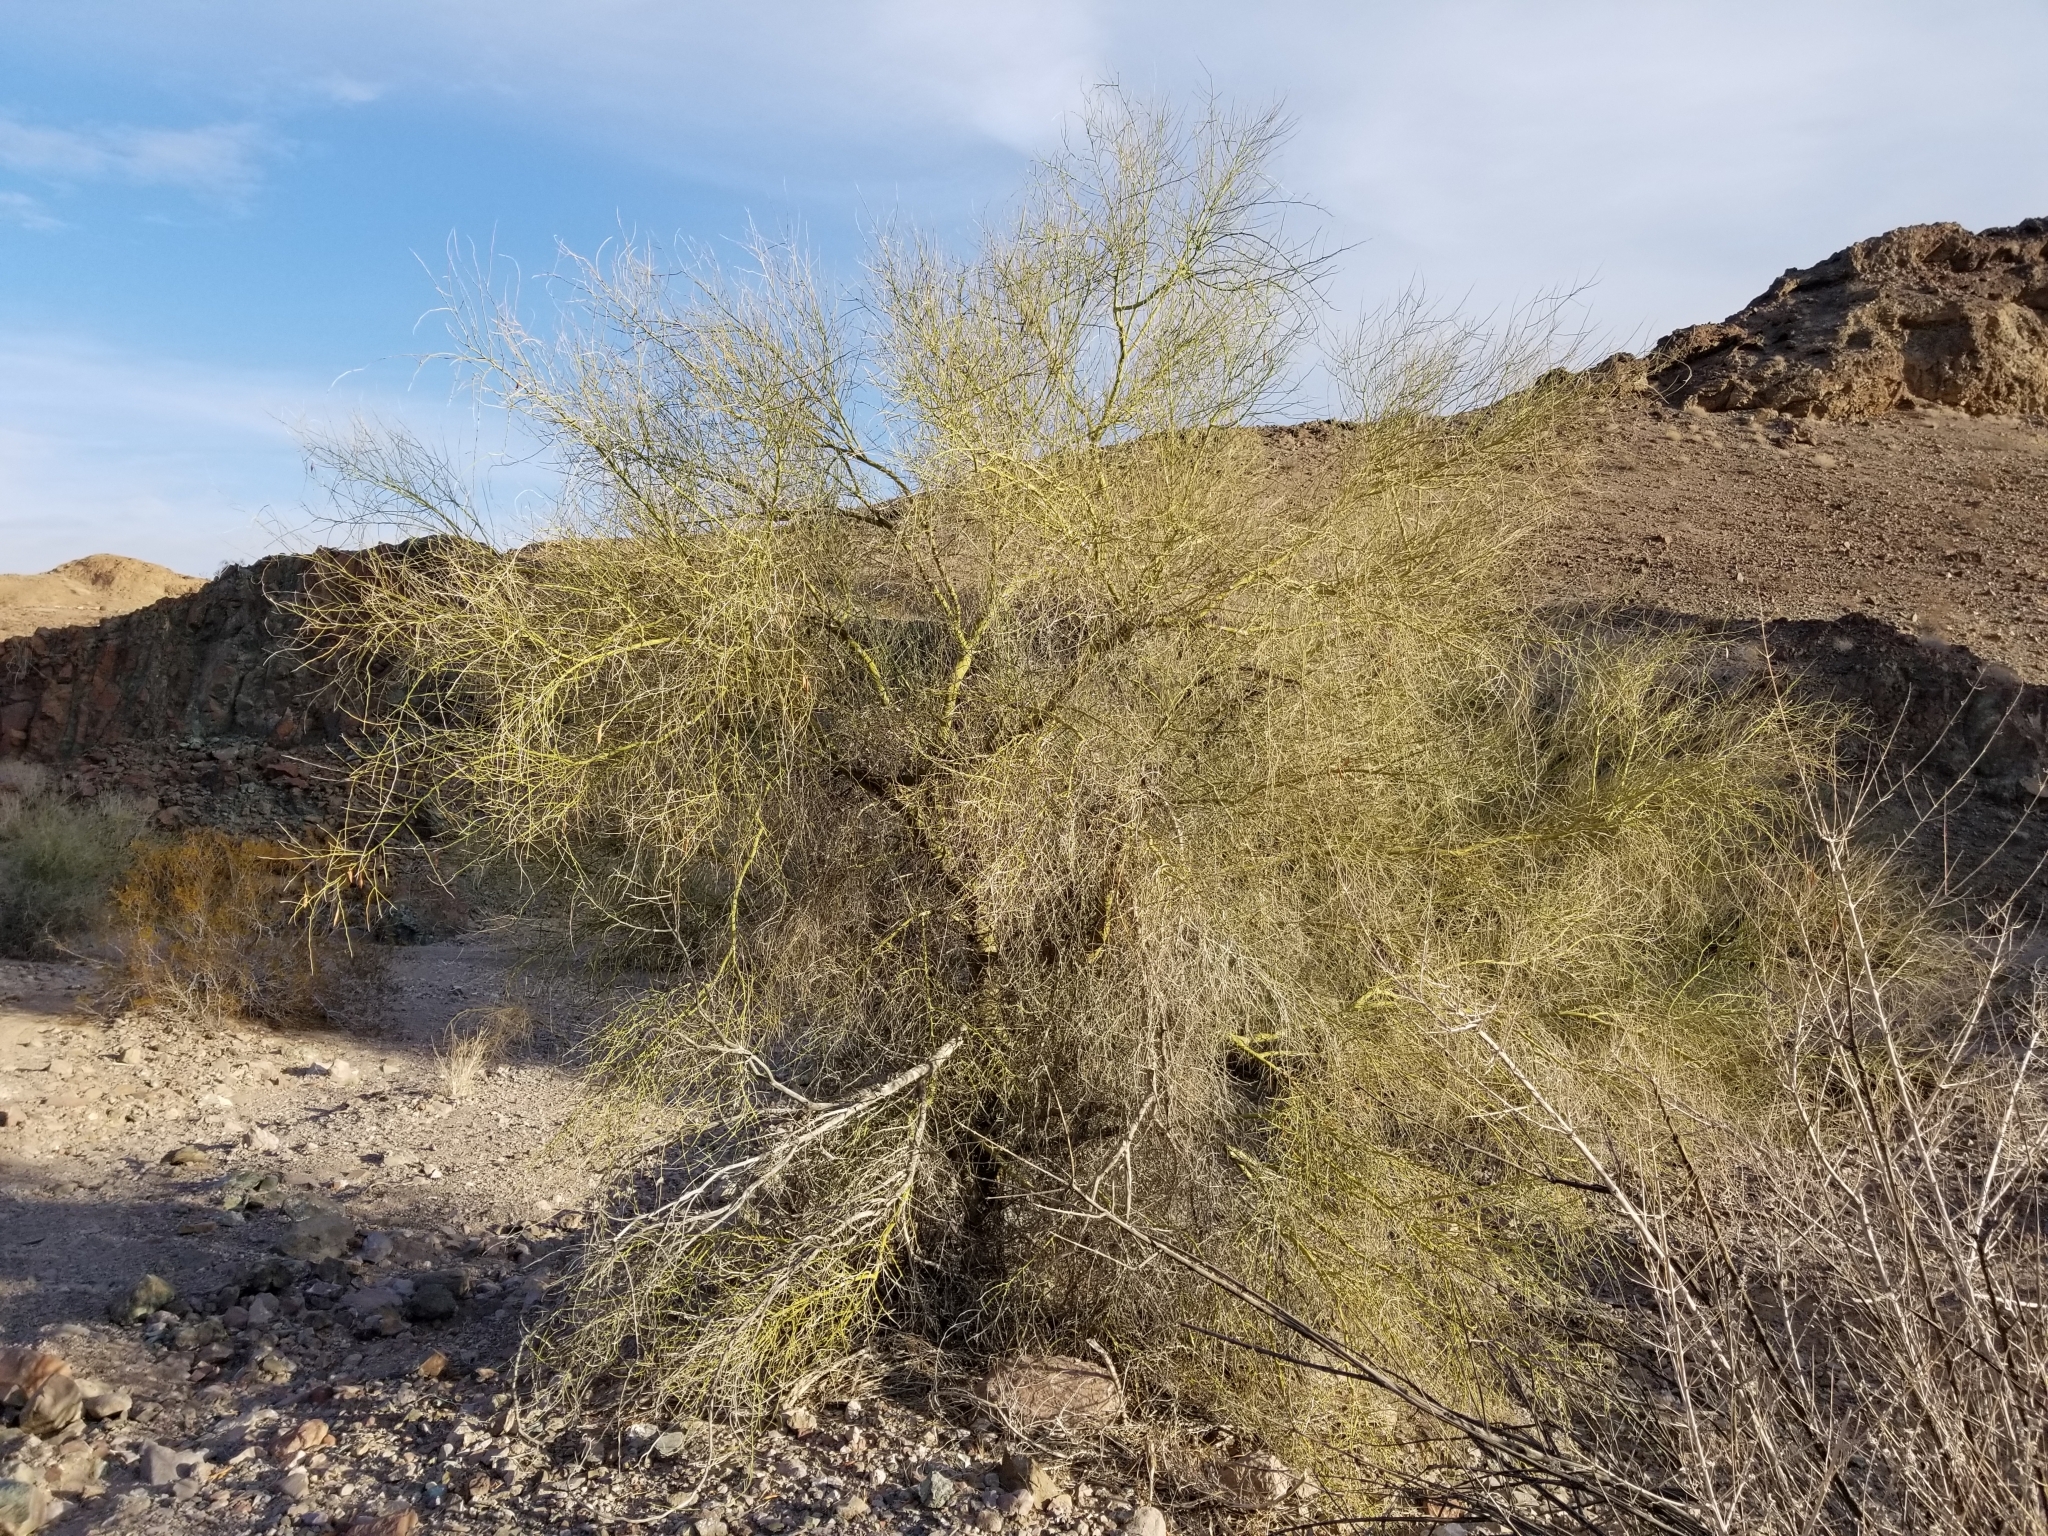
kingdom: Plantae
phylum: Tracheophyta
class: Magnoliopsida
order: Fabales
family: Fabaceae
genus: Parkinsonia
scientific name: Parkinsonia florida
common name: Blue paloverde
